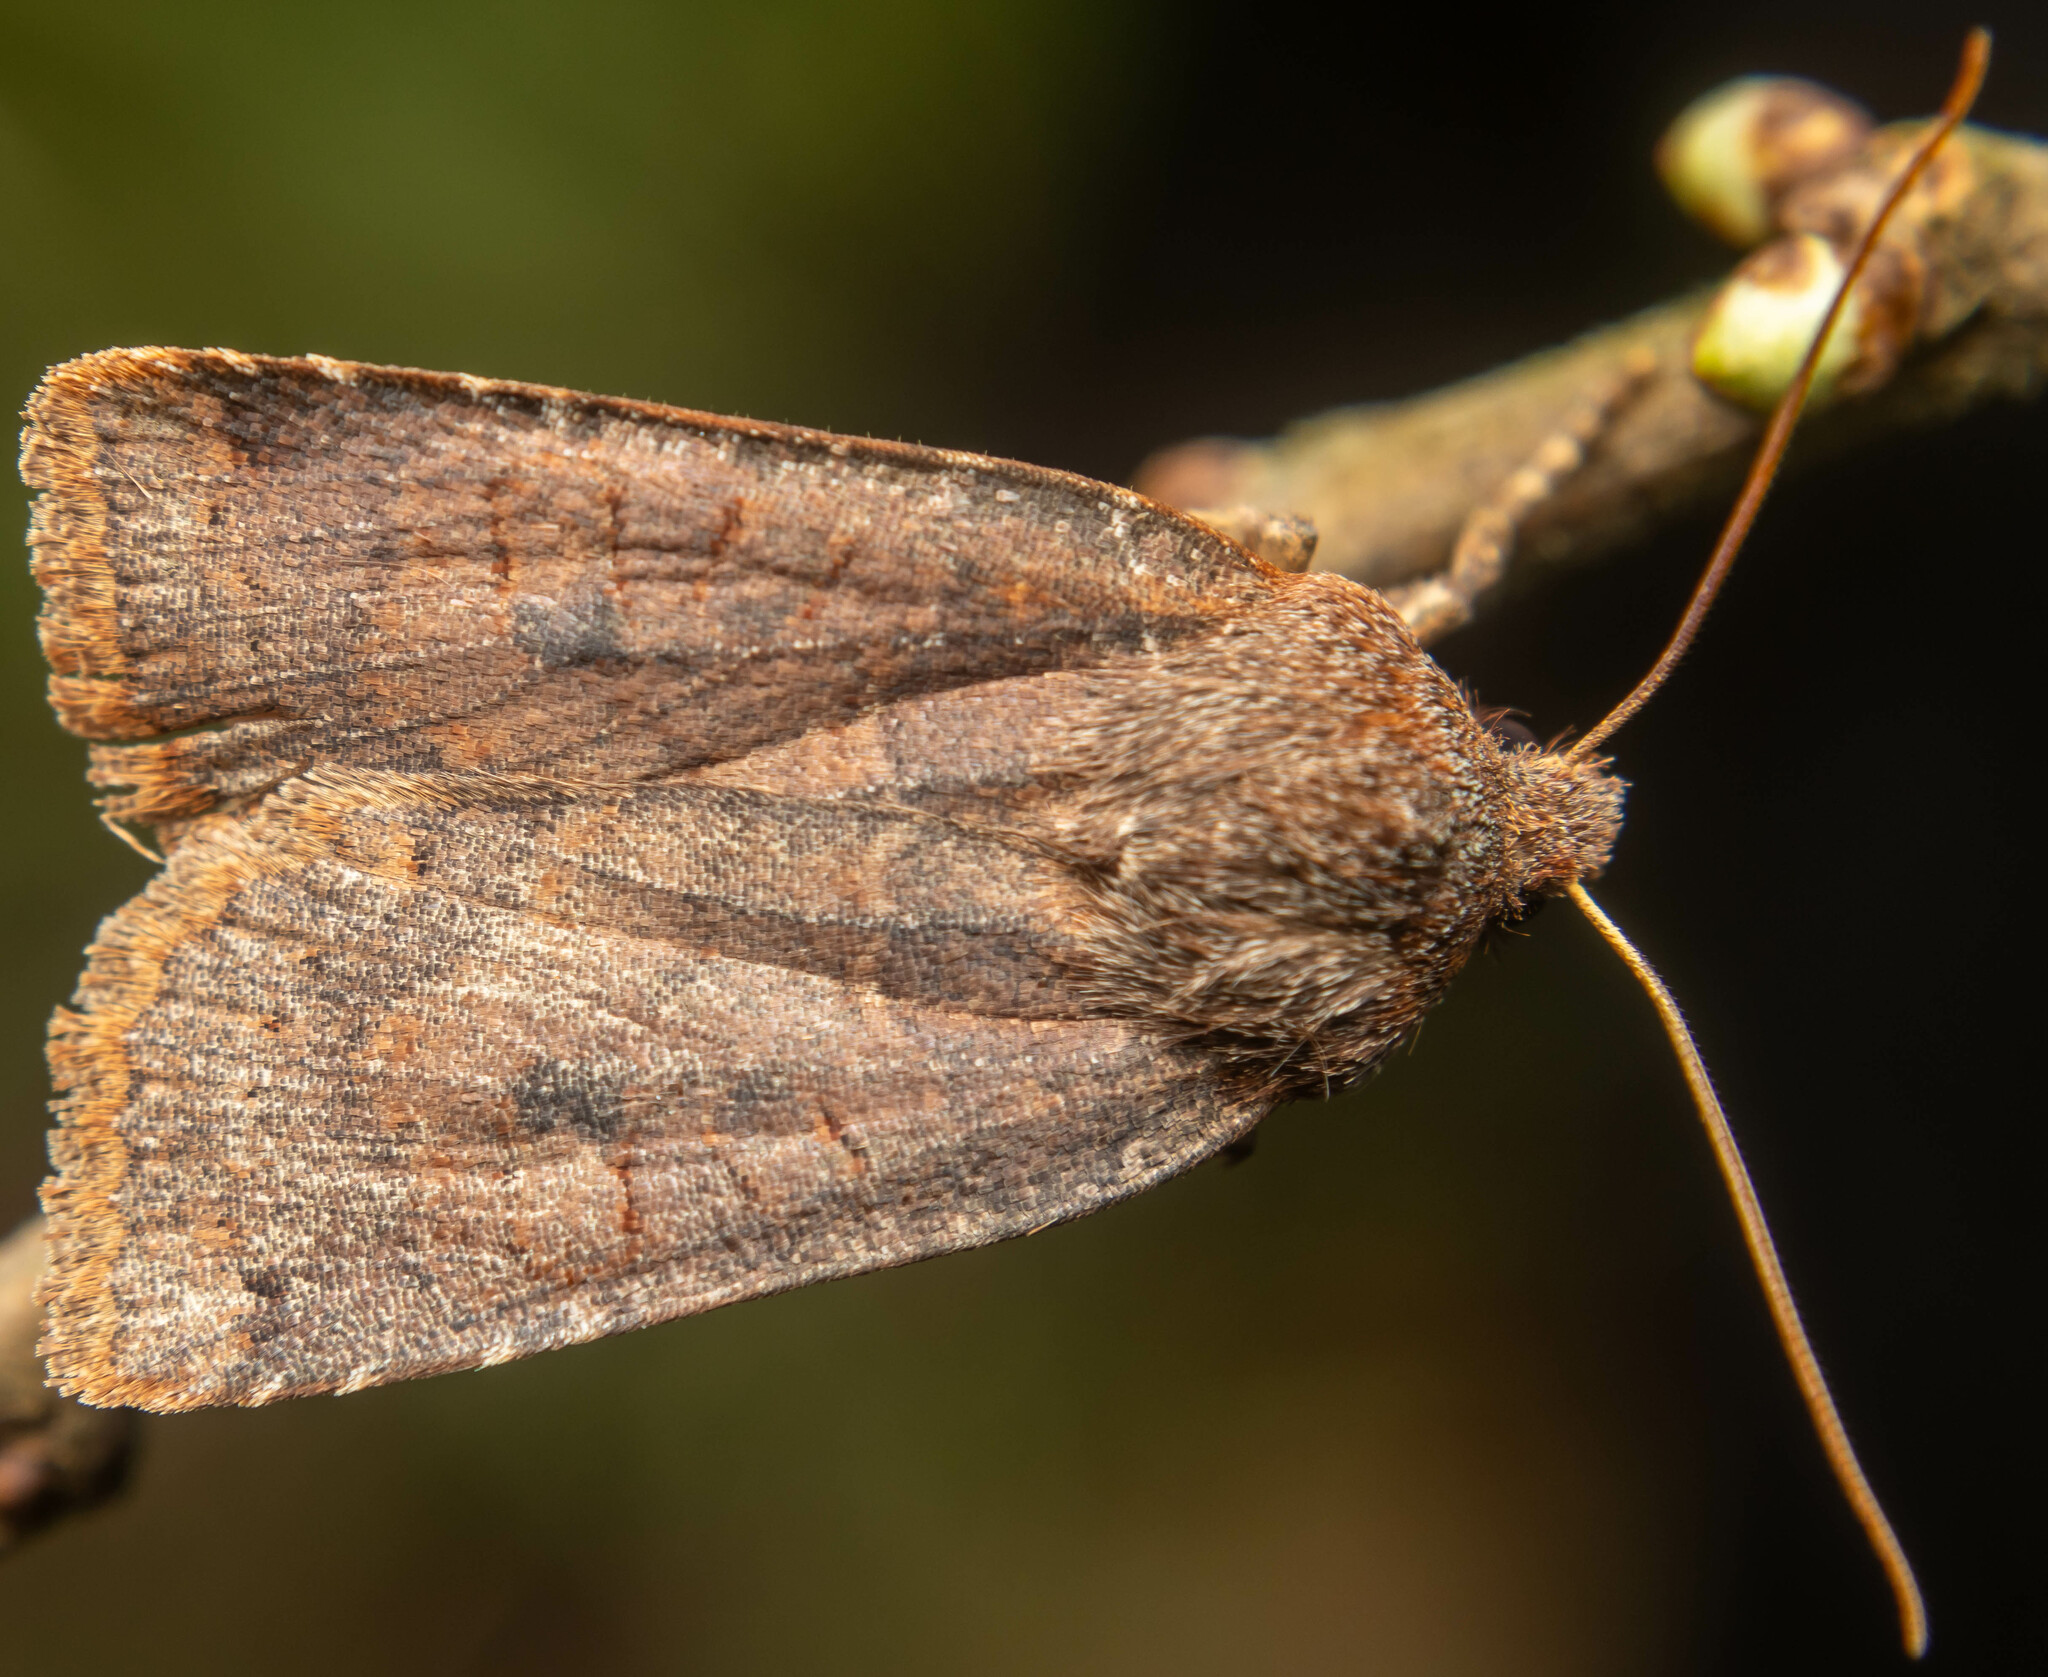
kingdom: Animalia
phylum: Arthropoda
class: Insecta
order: Lepidoptera
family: Noctuidae
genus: Conistra
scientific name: Conistra vaccinii
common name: Chestnut
